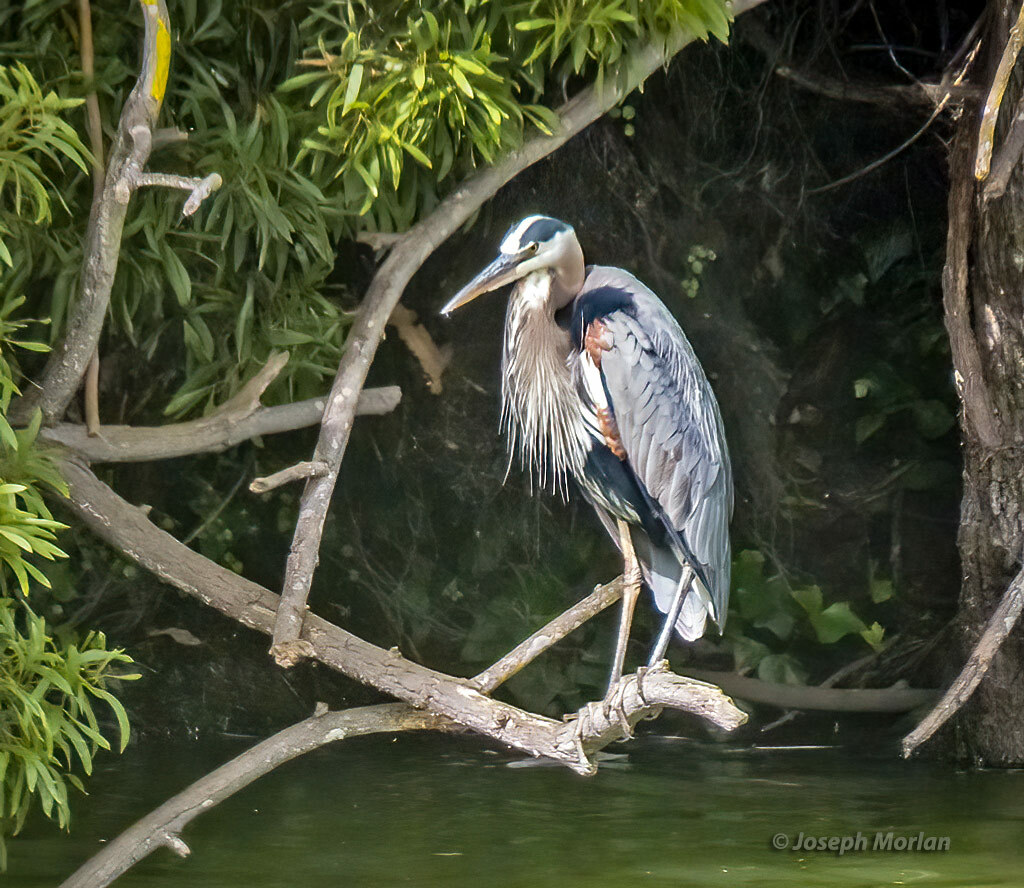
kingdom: Animalia
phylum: Chordata
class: Aves
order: Pelecaniformes
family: Ardeidae
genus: Ardea
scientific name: Ardea herodias
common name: Great blue heron
